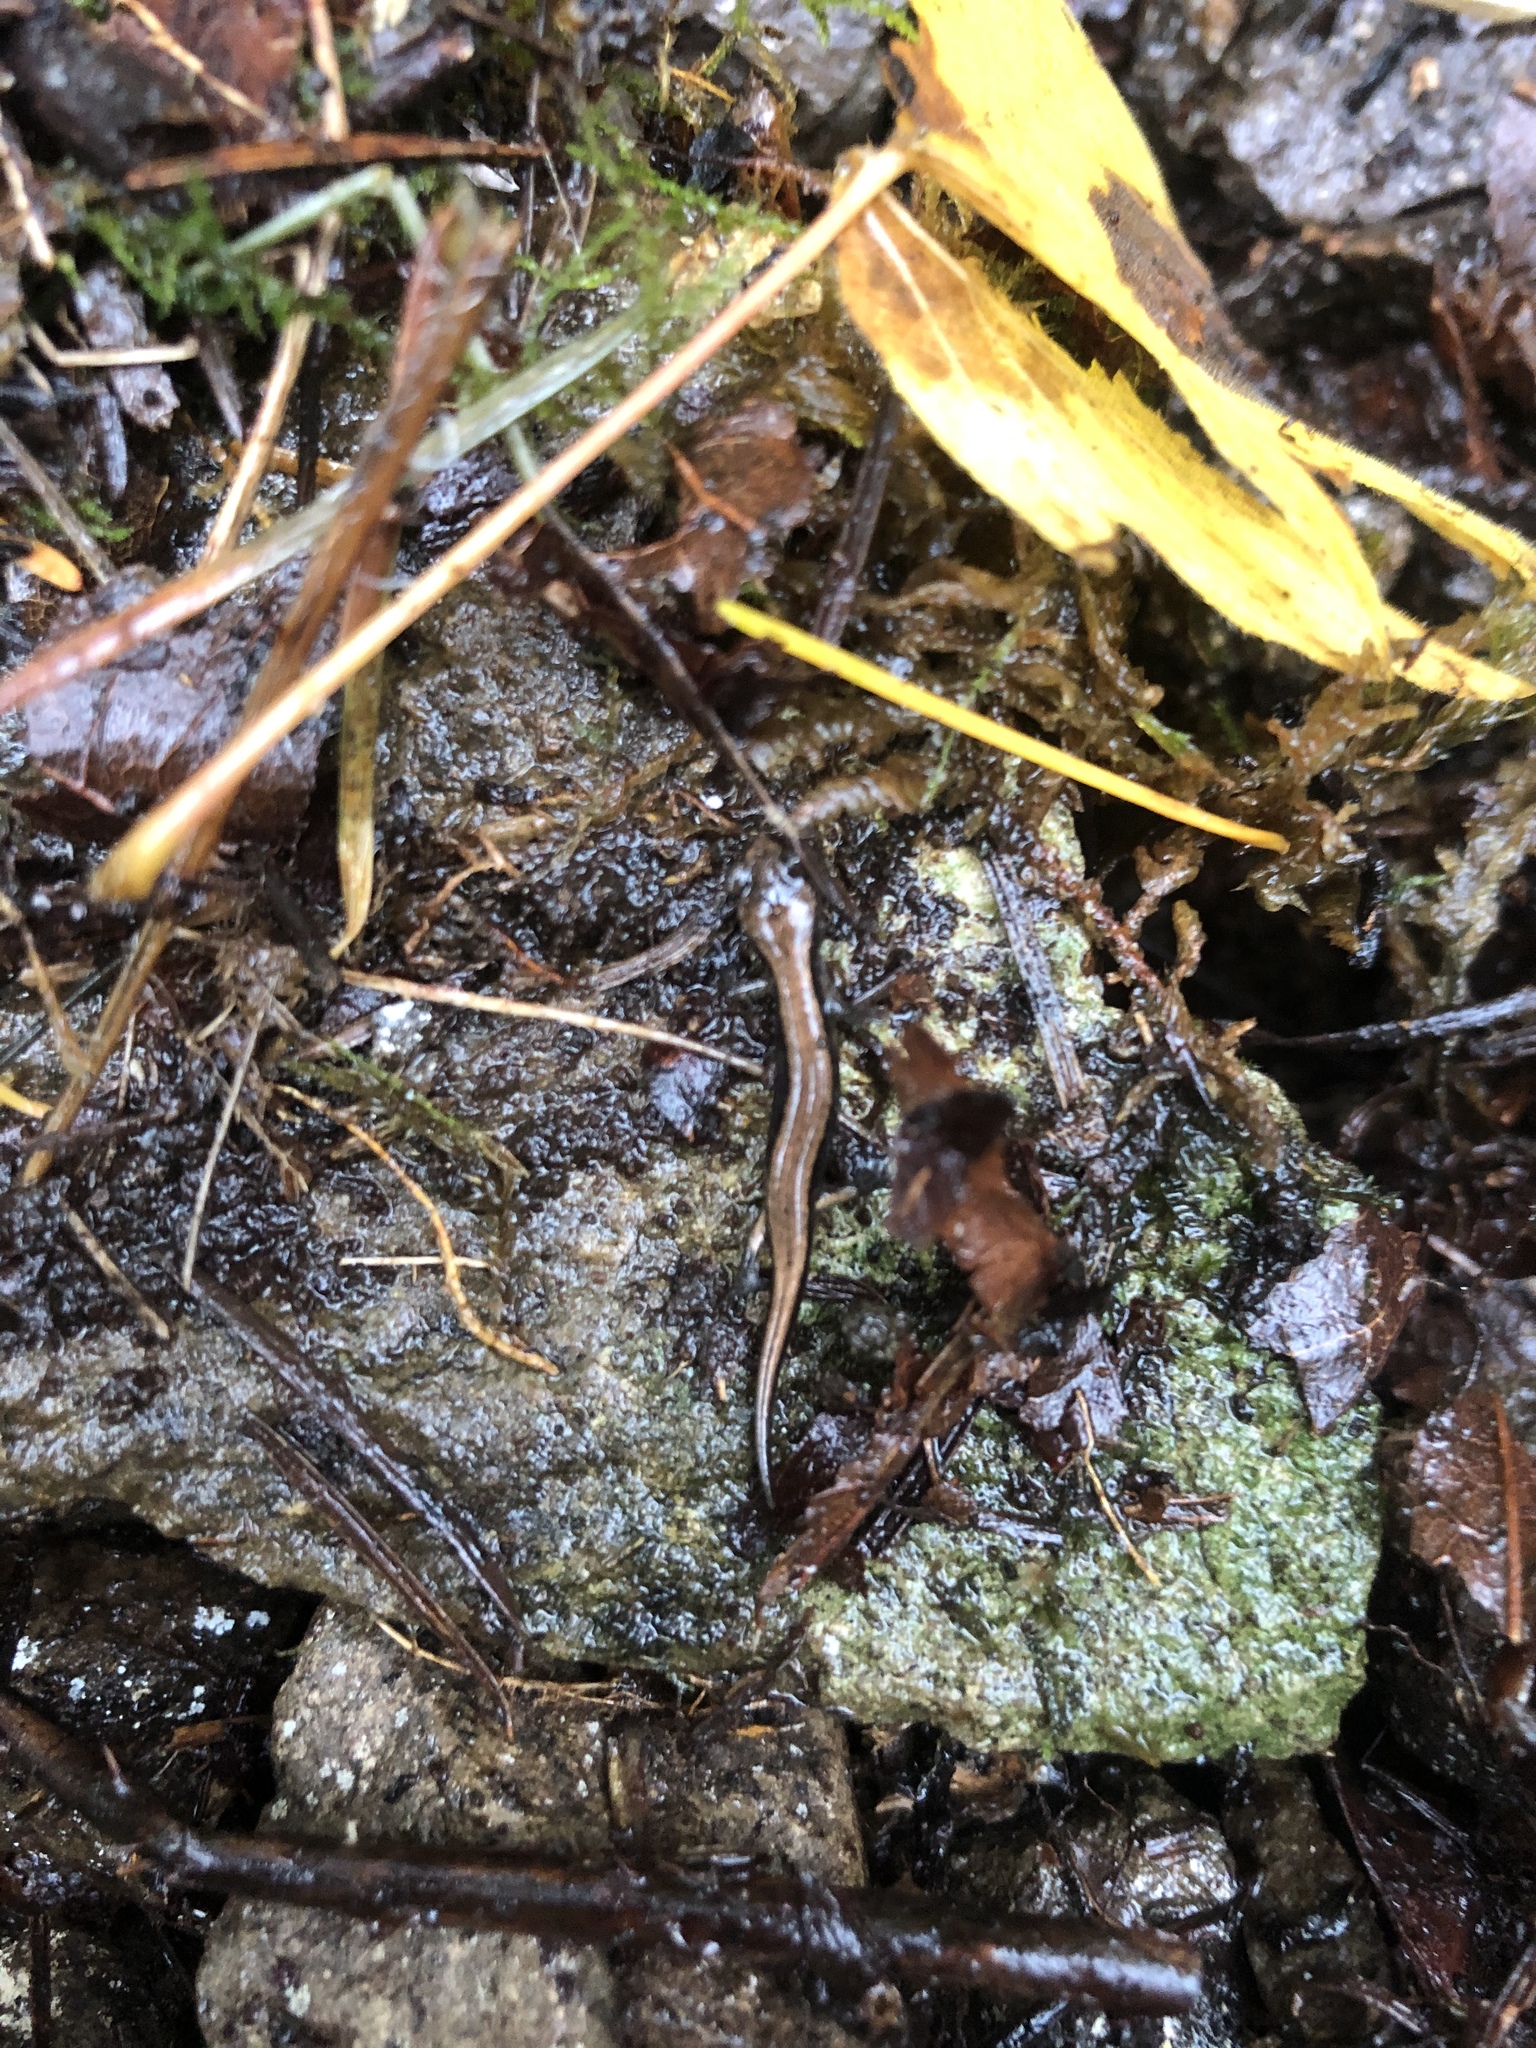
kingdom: Animalia
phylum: Chordata
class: Amphibia
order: Caudata
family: Plethodontidae
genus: Plethodon
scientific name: Plethodon vehiculum
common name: Western red-backed salamander
